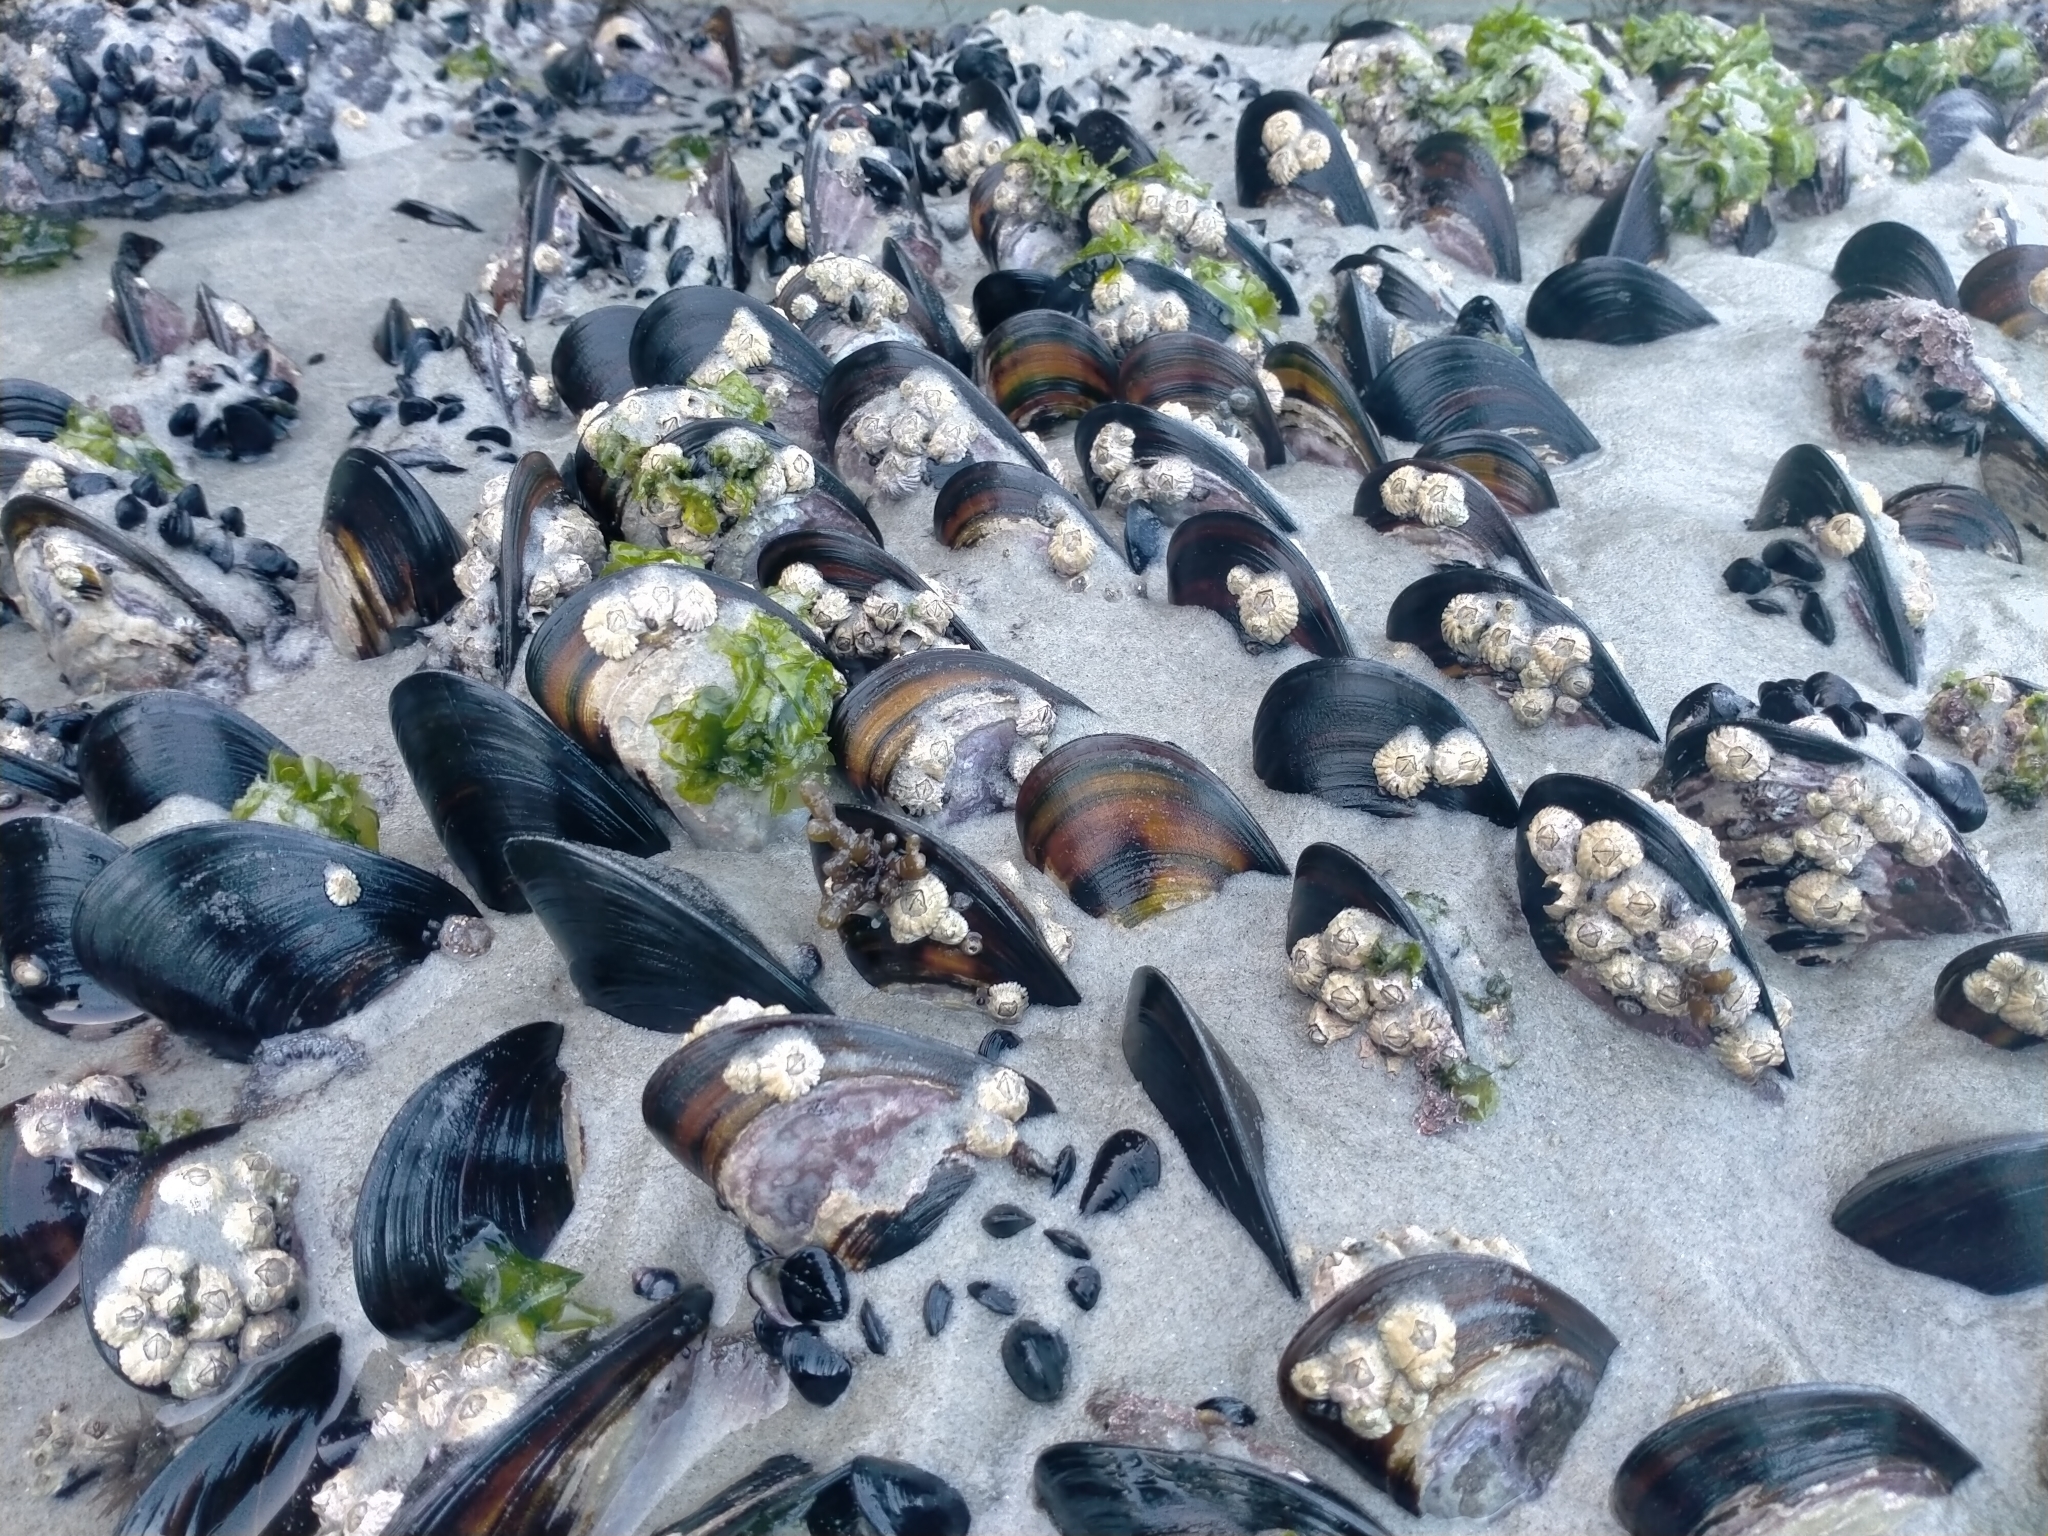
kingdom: Animalia
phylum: Mollusca
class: Bivalvia
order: Mytilida
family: Mytilidae
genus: Perna
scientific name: Perna canaliculus
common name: New zealand greenshelltm
